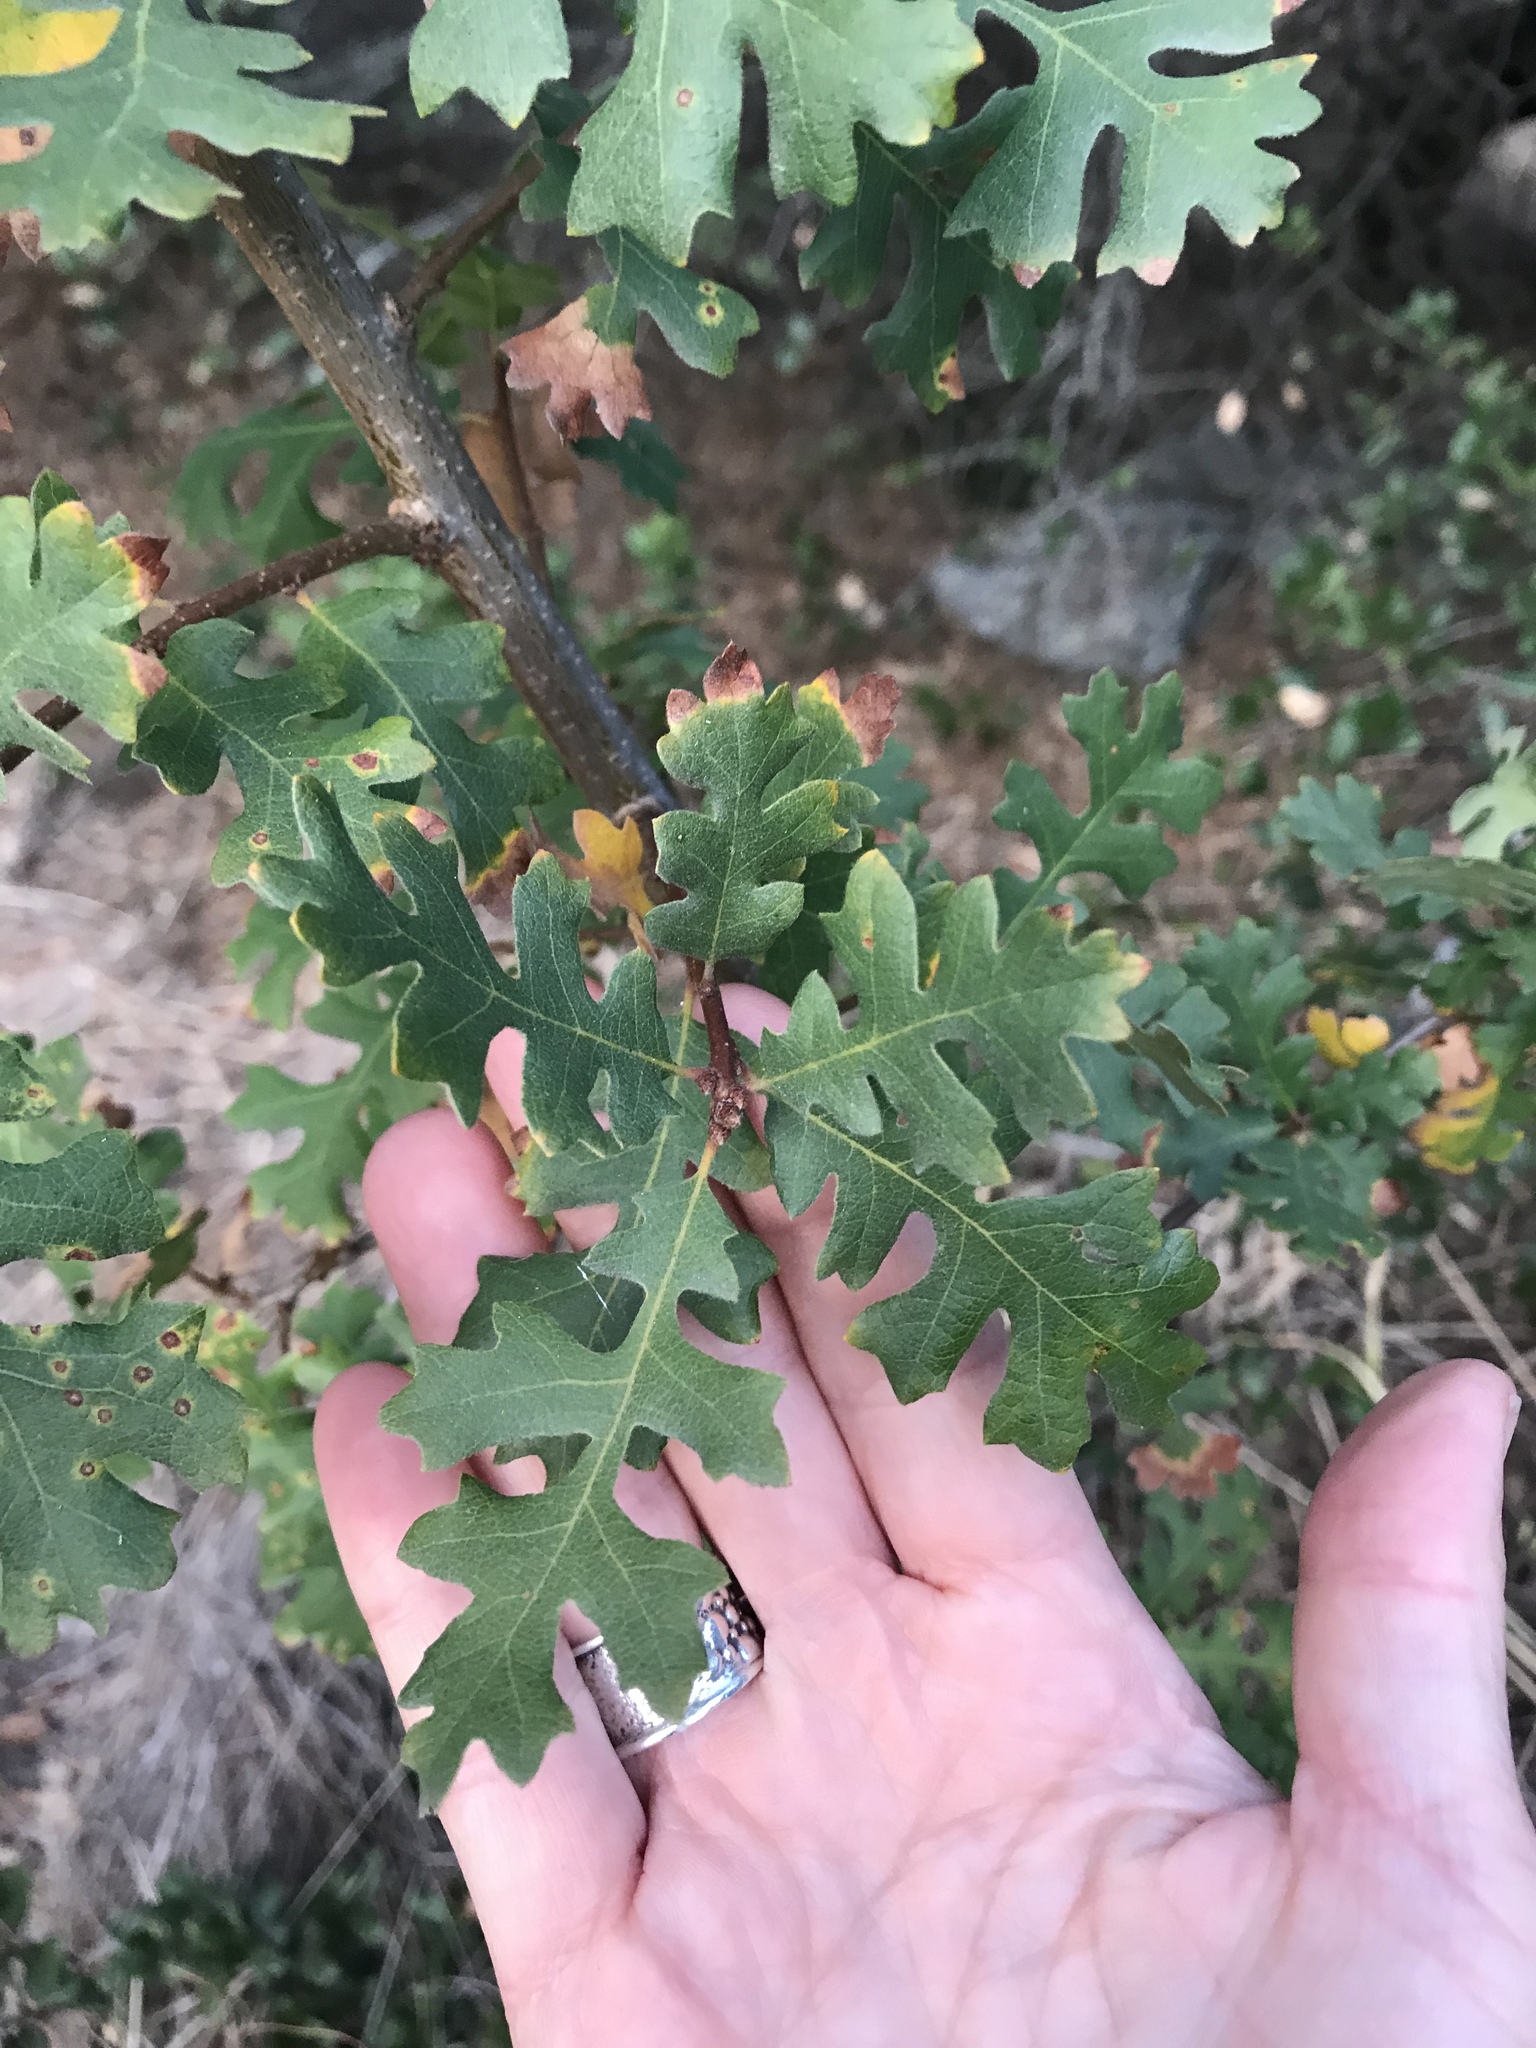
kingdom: Plantae
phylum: Tracheophyta
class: Magnoliopsida
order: Fagales
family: Fagaceae
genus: Quercus
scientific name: Quercus lobata
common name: Valley oak
